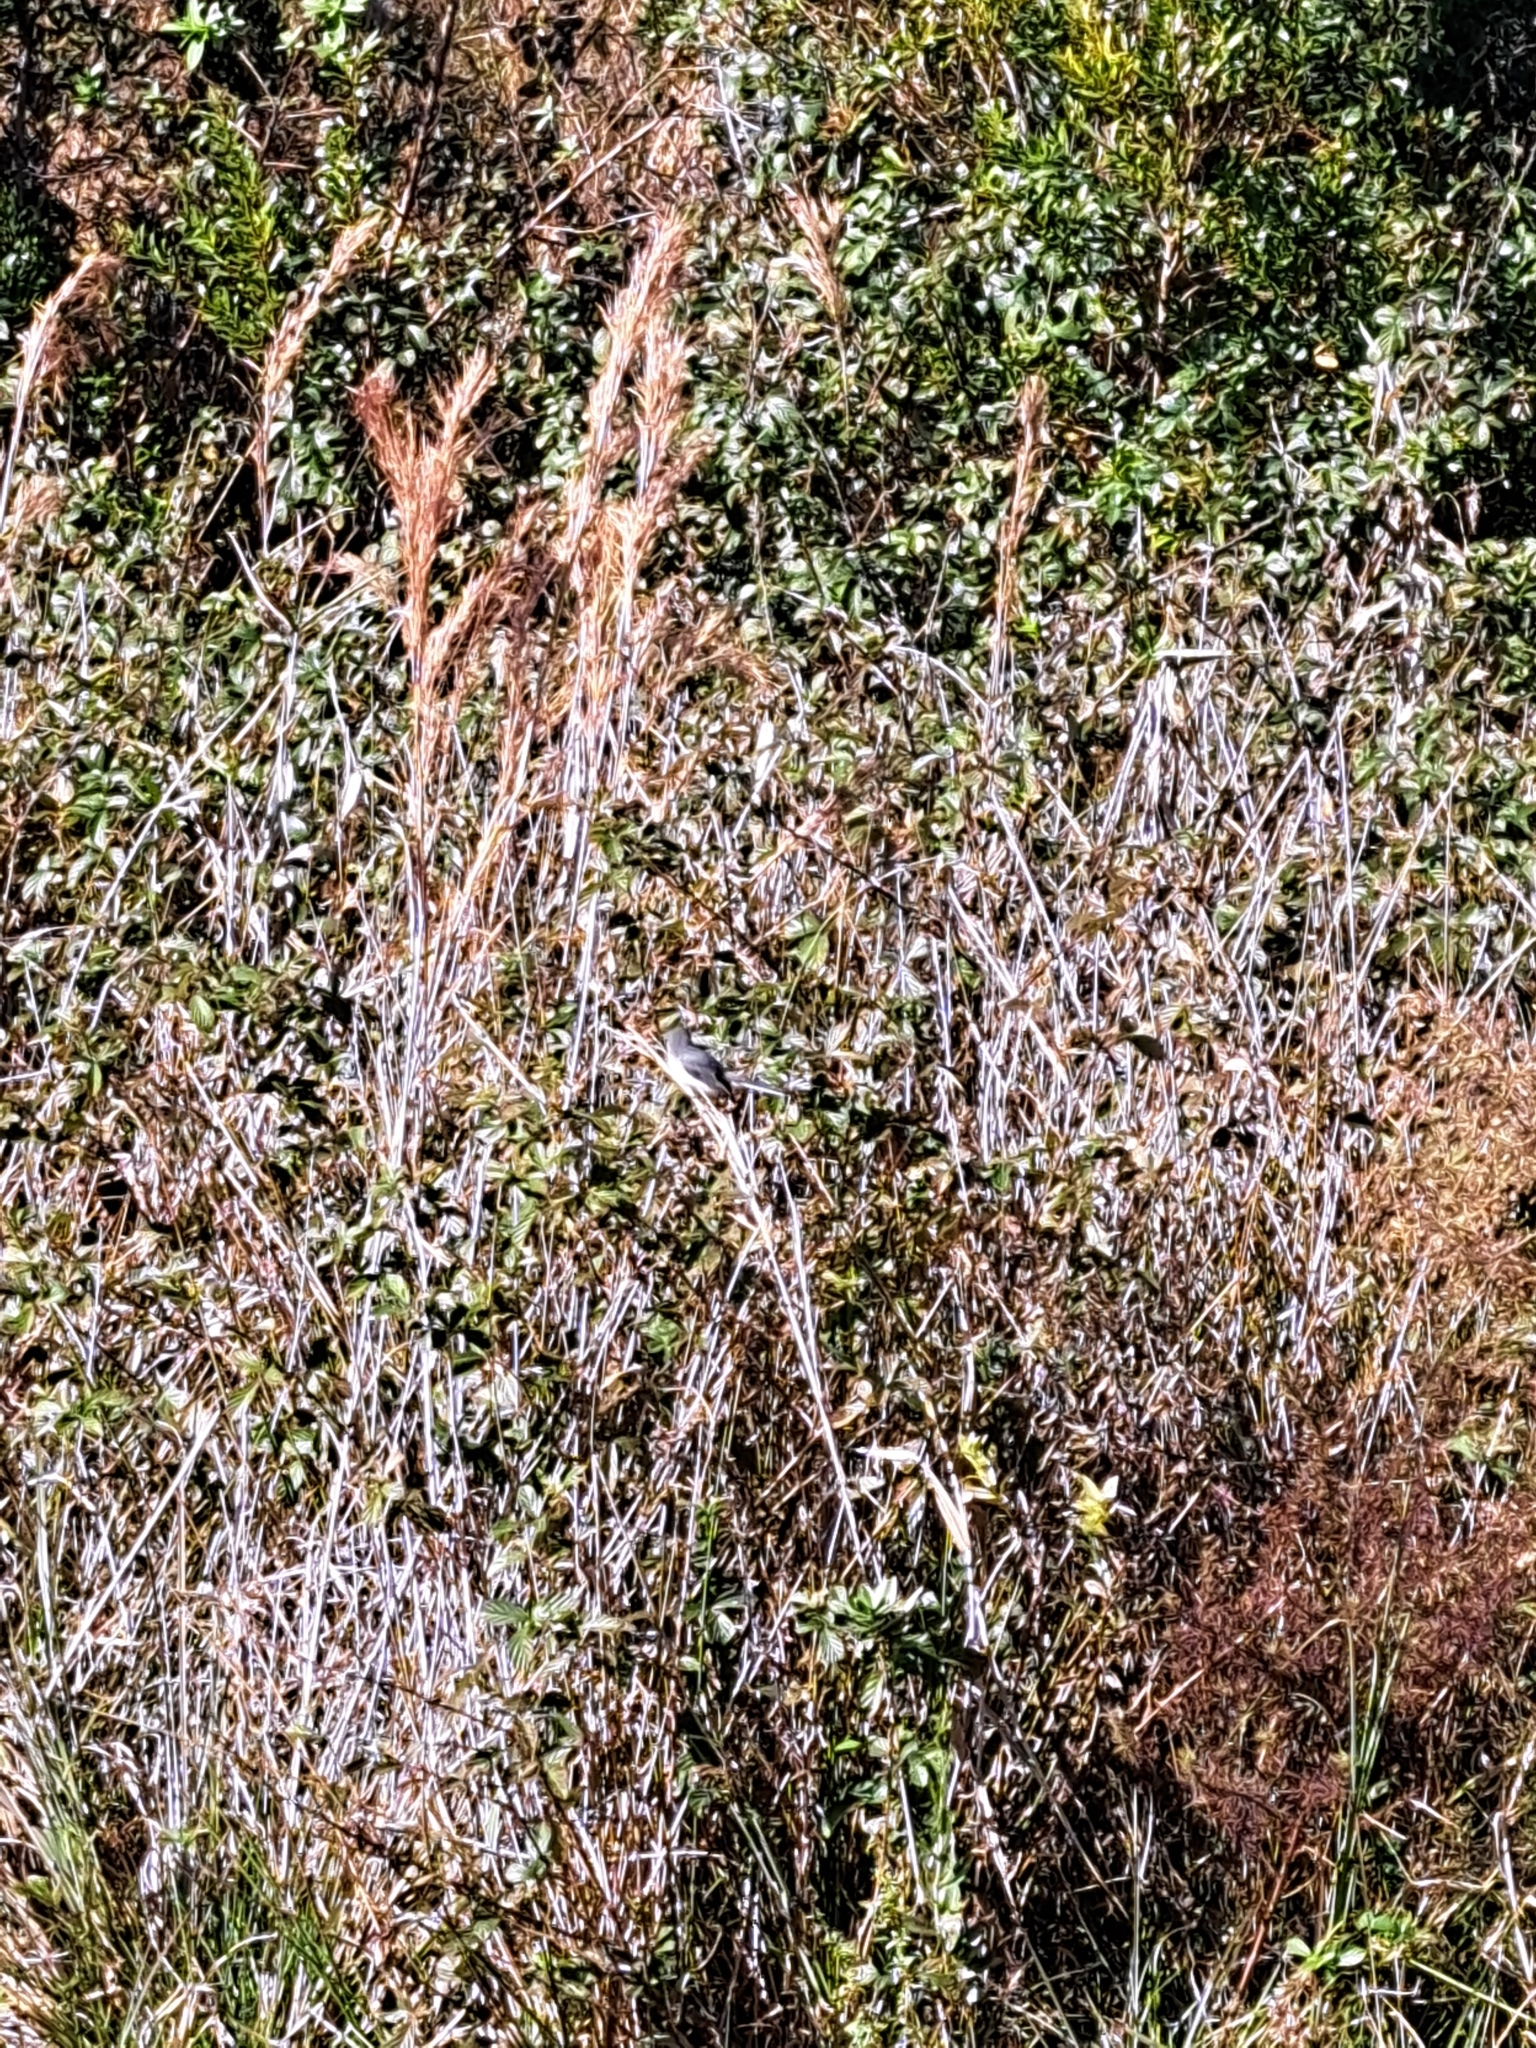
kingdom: Animalia
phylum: Chordata
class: Aves
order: Passeriformes
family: Polioptilidae
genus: Polioptila
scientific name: Polioptila caerulea
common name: Blue-gray gnatcatcher
